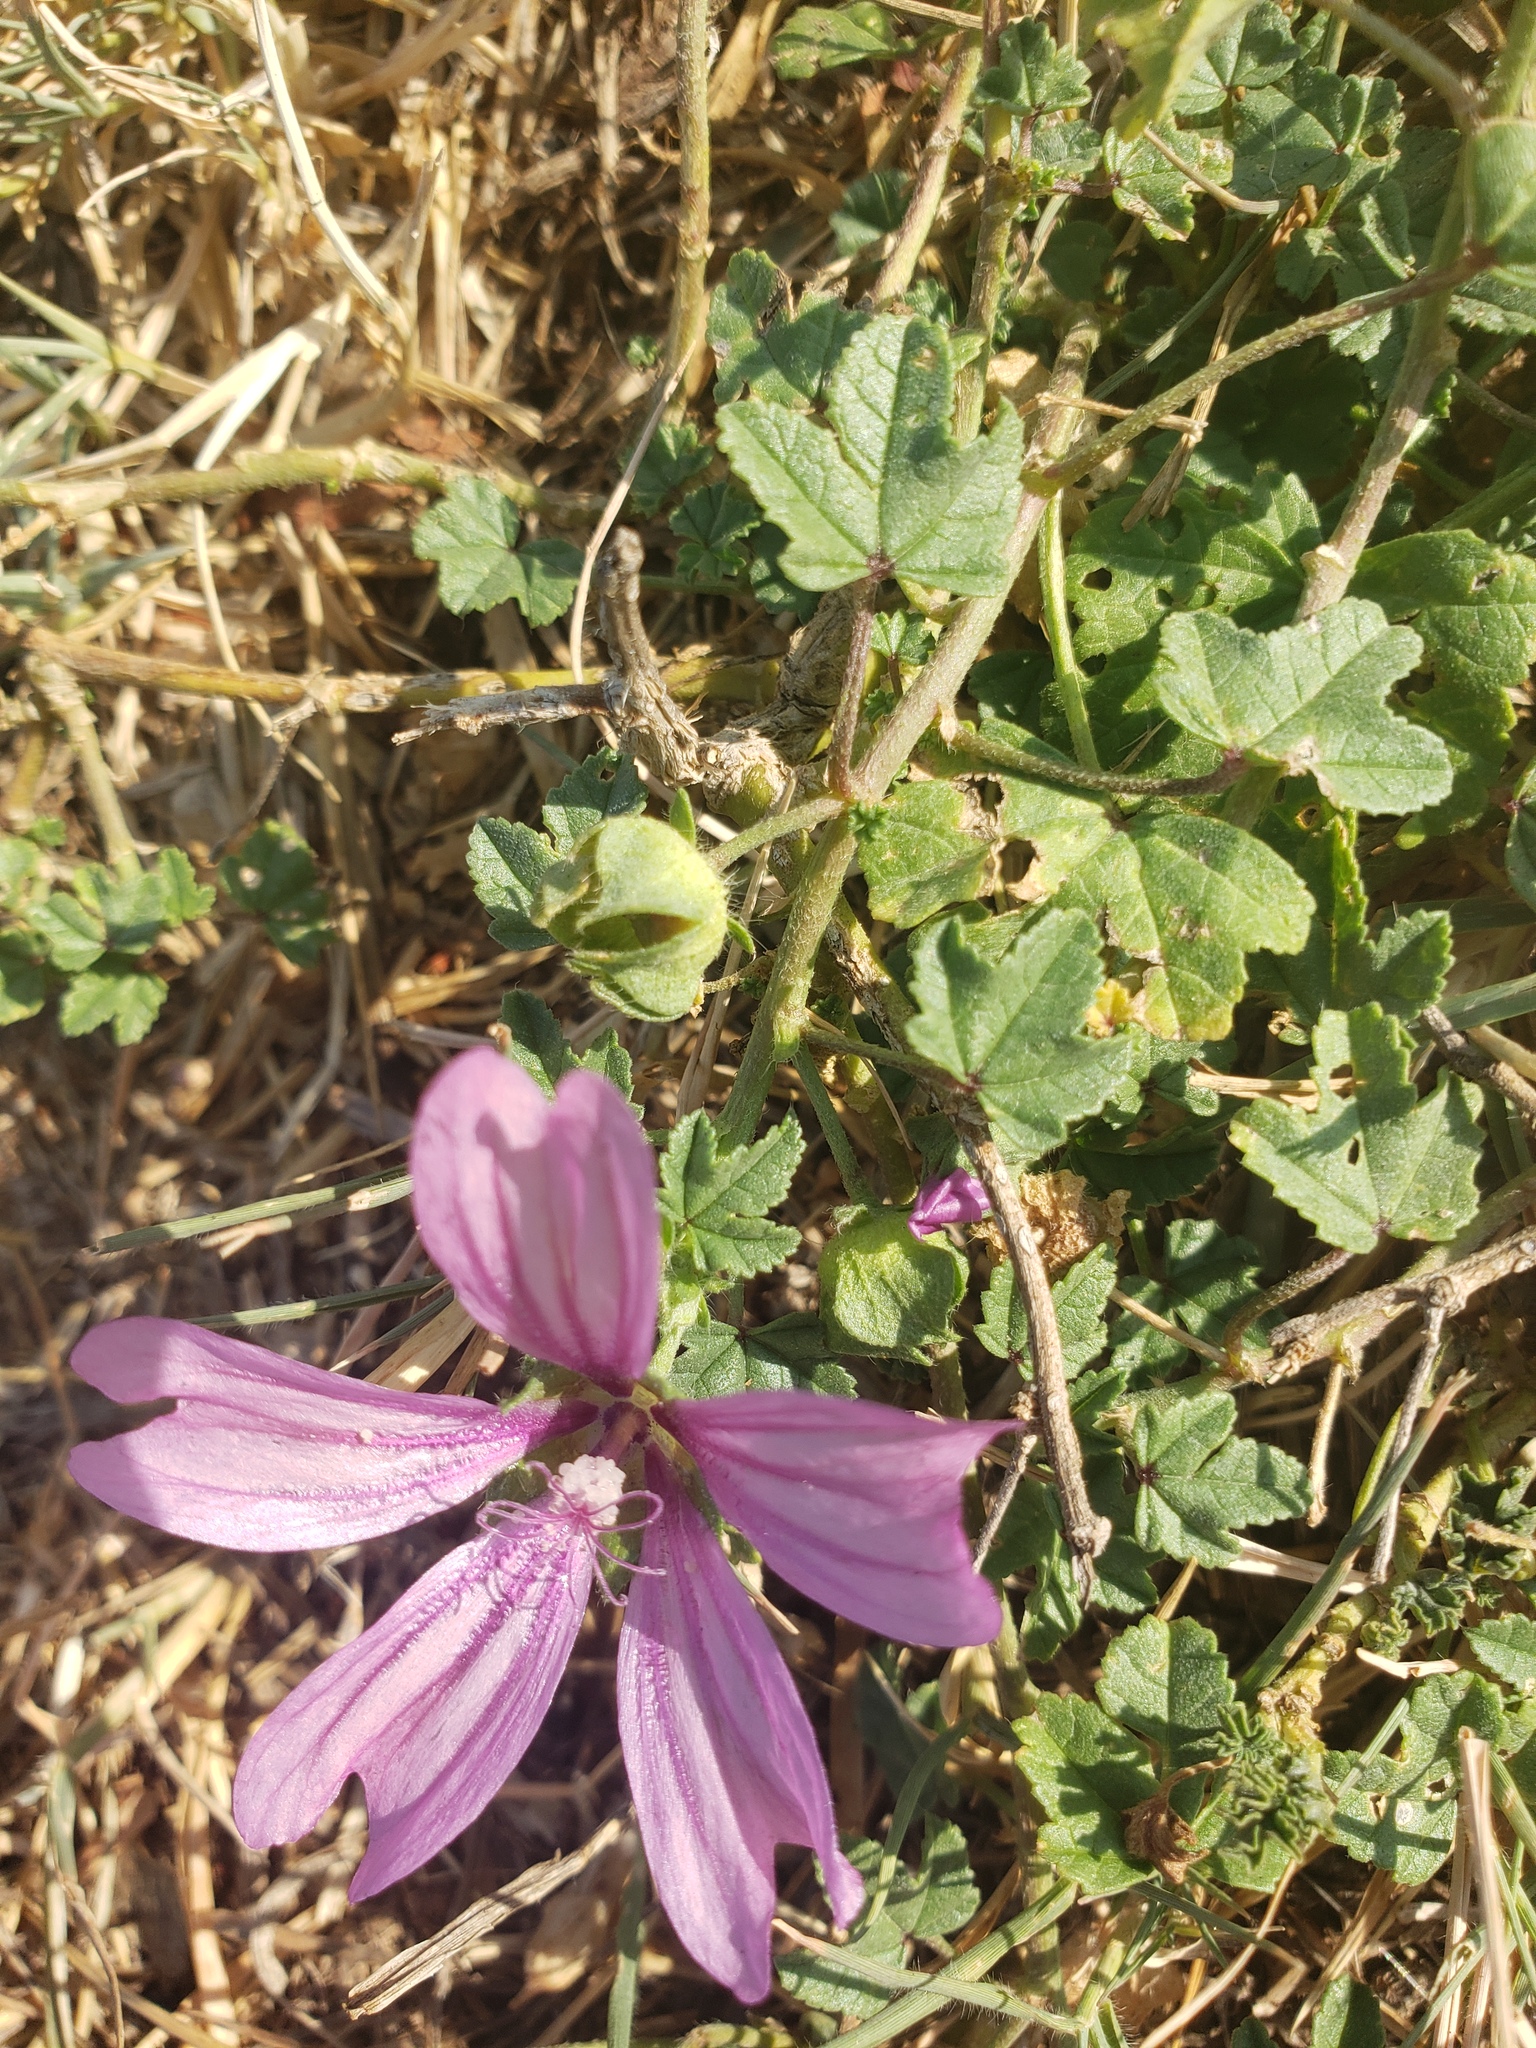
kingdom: Plantae
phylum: Tracheophyta
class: Magnoliopsida
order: Malvales
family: Malvaceae
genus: Malva
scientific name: Malva sylvestris
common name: Common mallow
